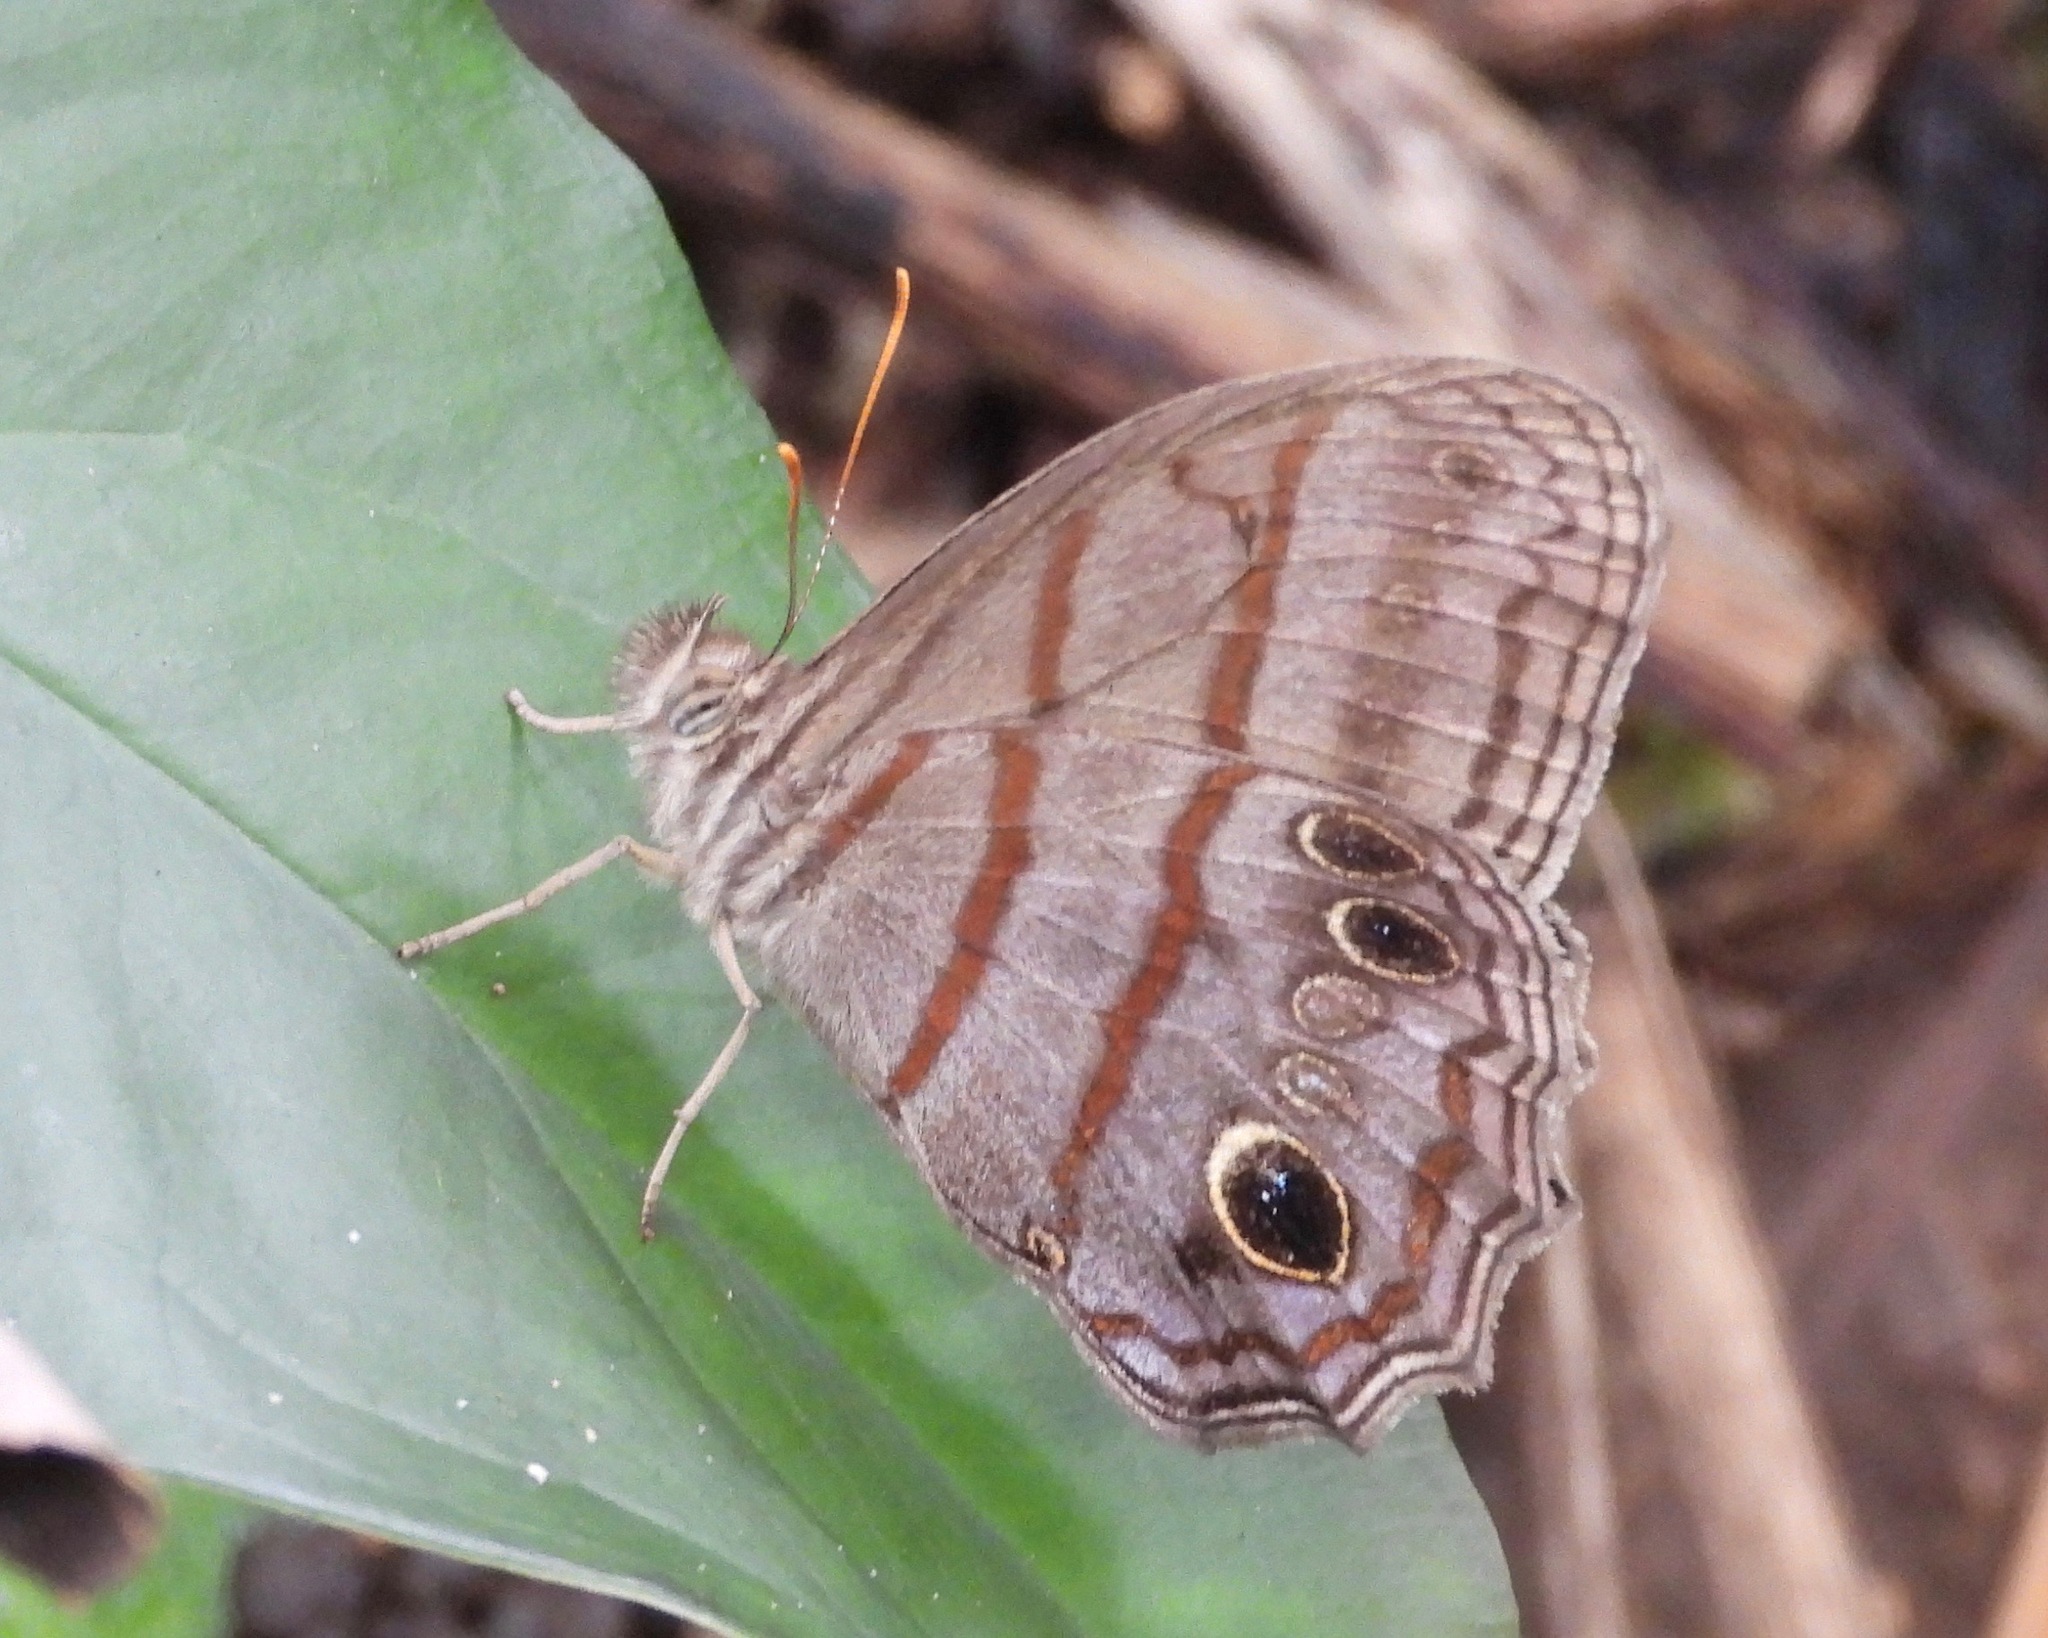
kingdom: Animalia
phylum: Arthropoda
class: Insecta
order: Lepidoptera
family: Nymphalidae
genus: Magneuptychia
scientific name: Magneuptychia libye
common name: Blue-gray satyr
